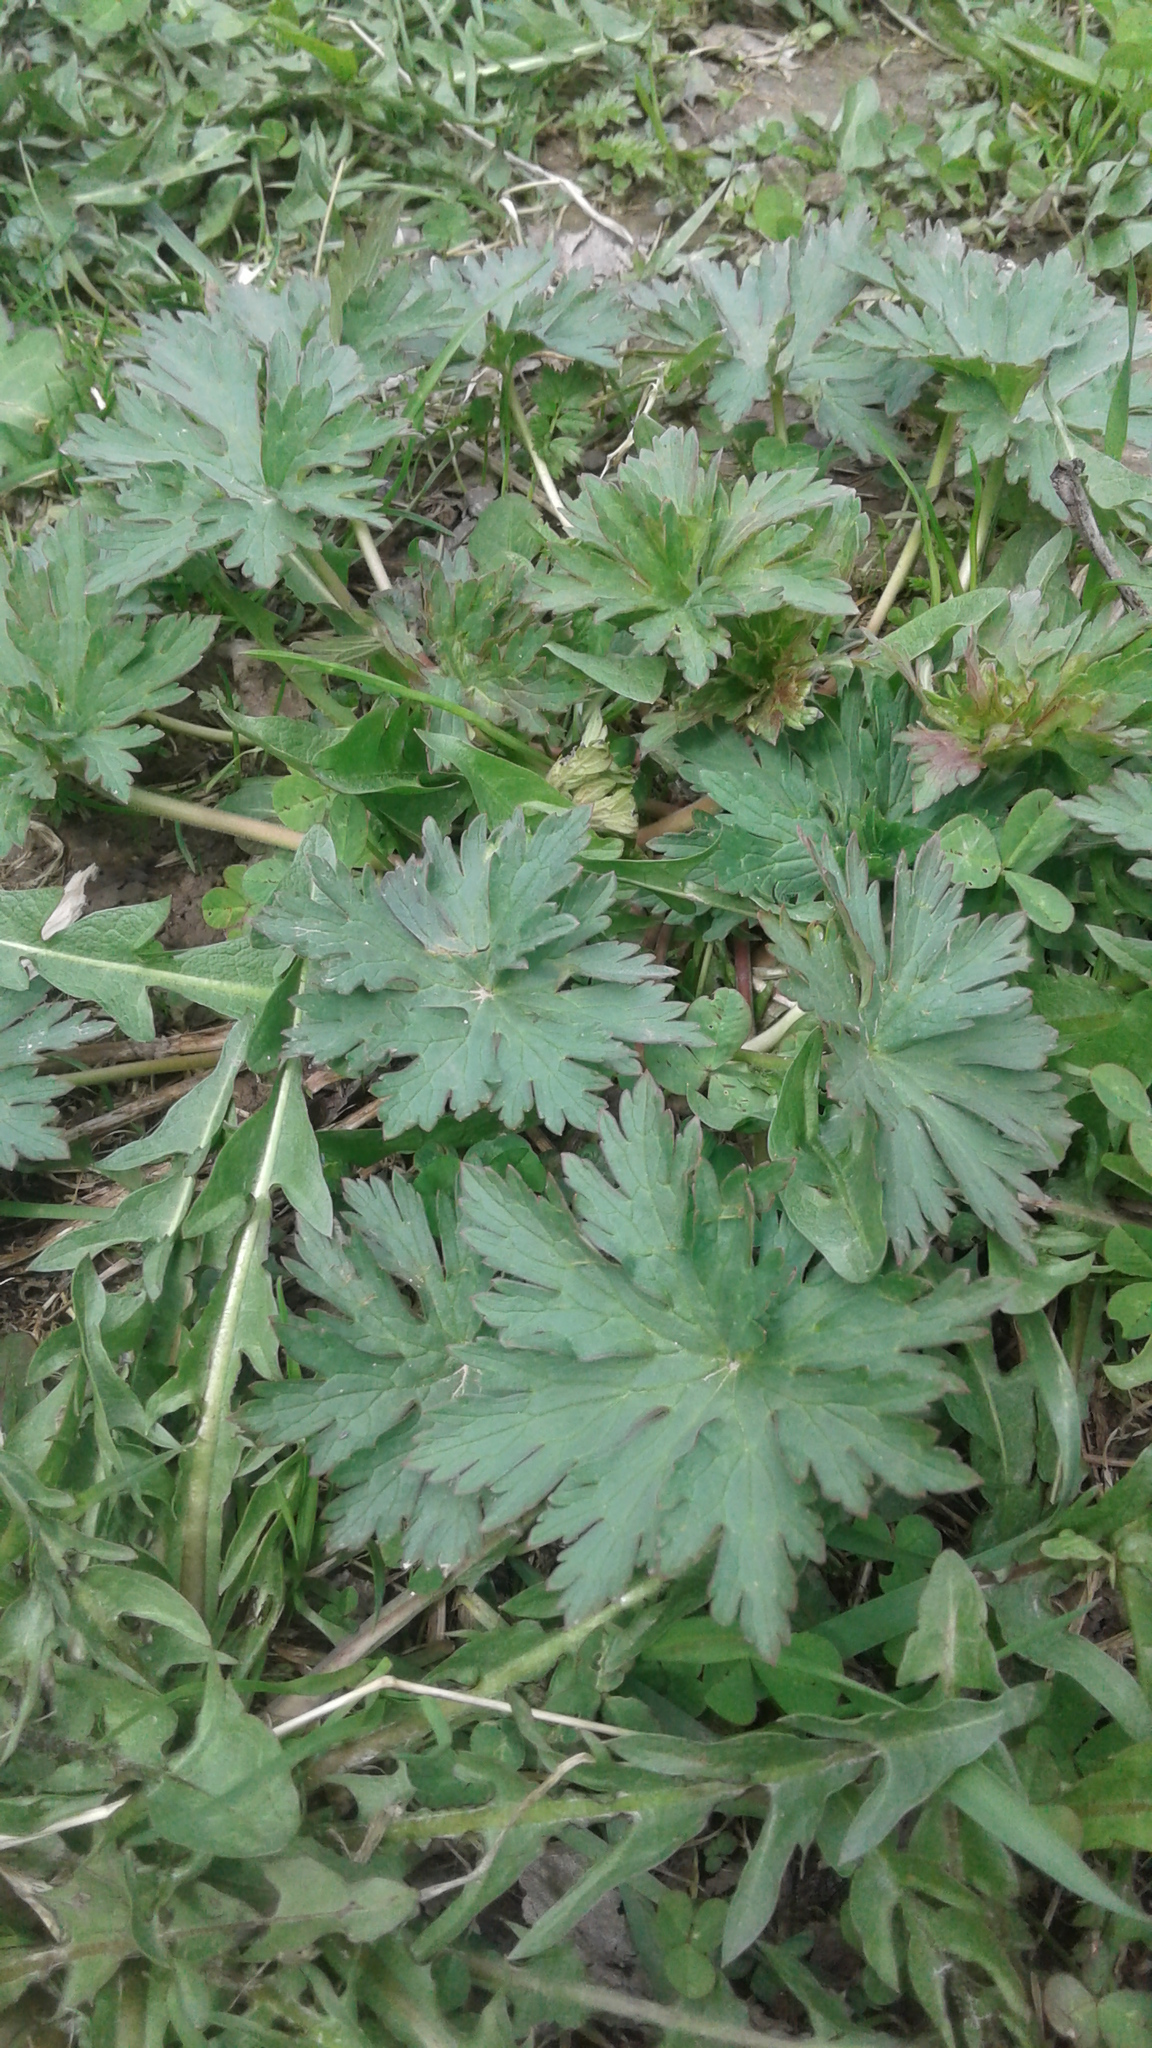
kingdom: Plantae
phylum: Tracheophyta
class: Magnoliopsida
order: Geraniales
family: Geraniaceae
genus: Geranium
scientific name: Geranium pratense
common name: Meadow crane's-bill
